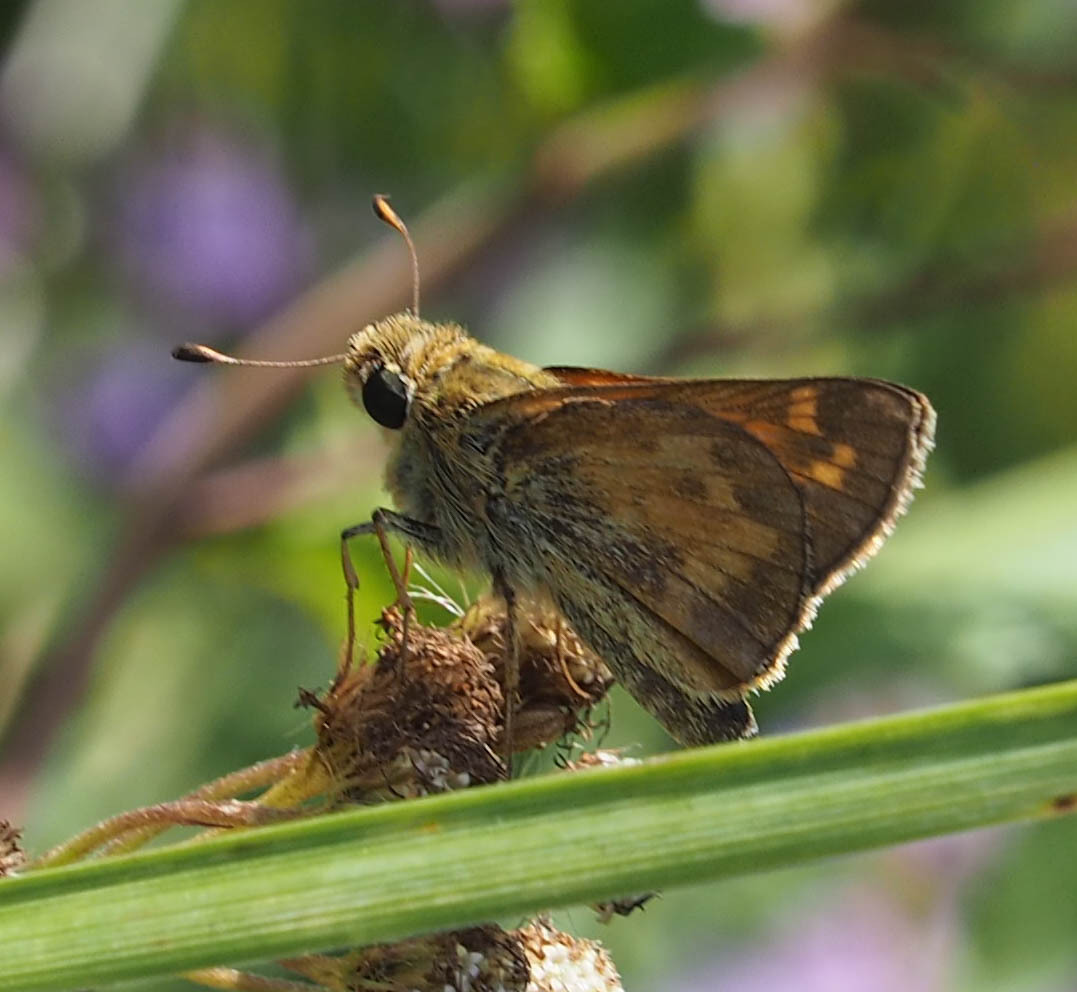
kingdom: Animalia
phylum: Arthropoda
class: Insecta
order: Lepidoptera
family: Hesperiidae
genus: Atalopedes
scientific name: Atalopedes
